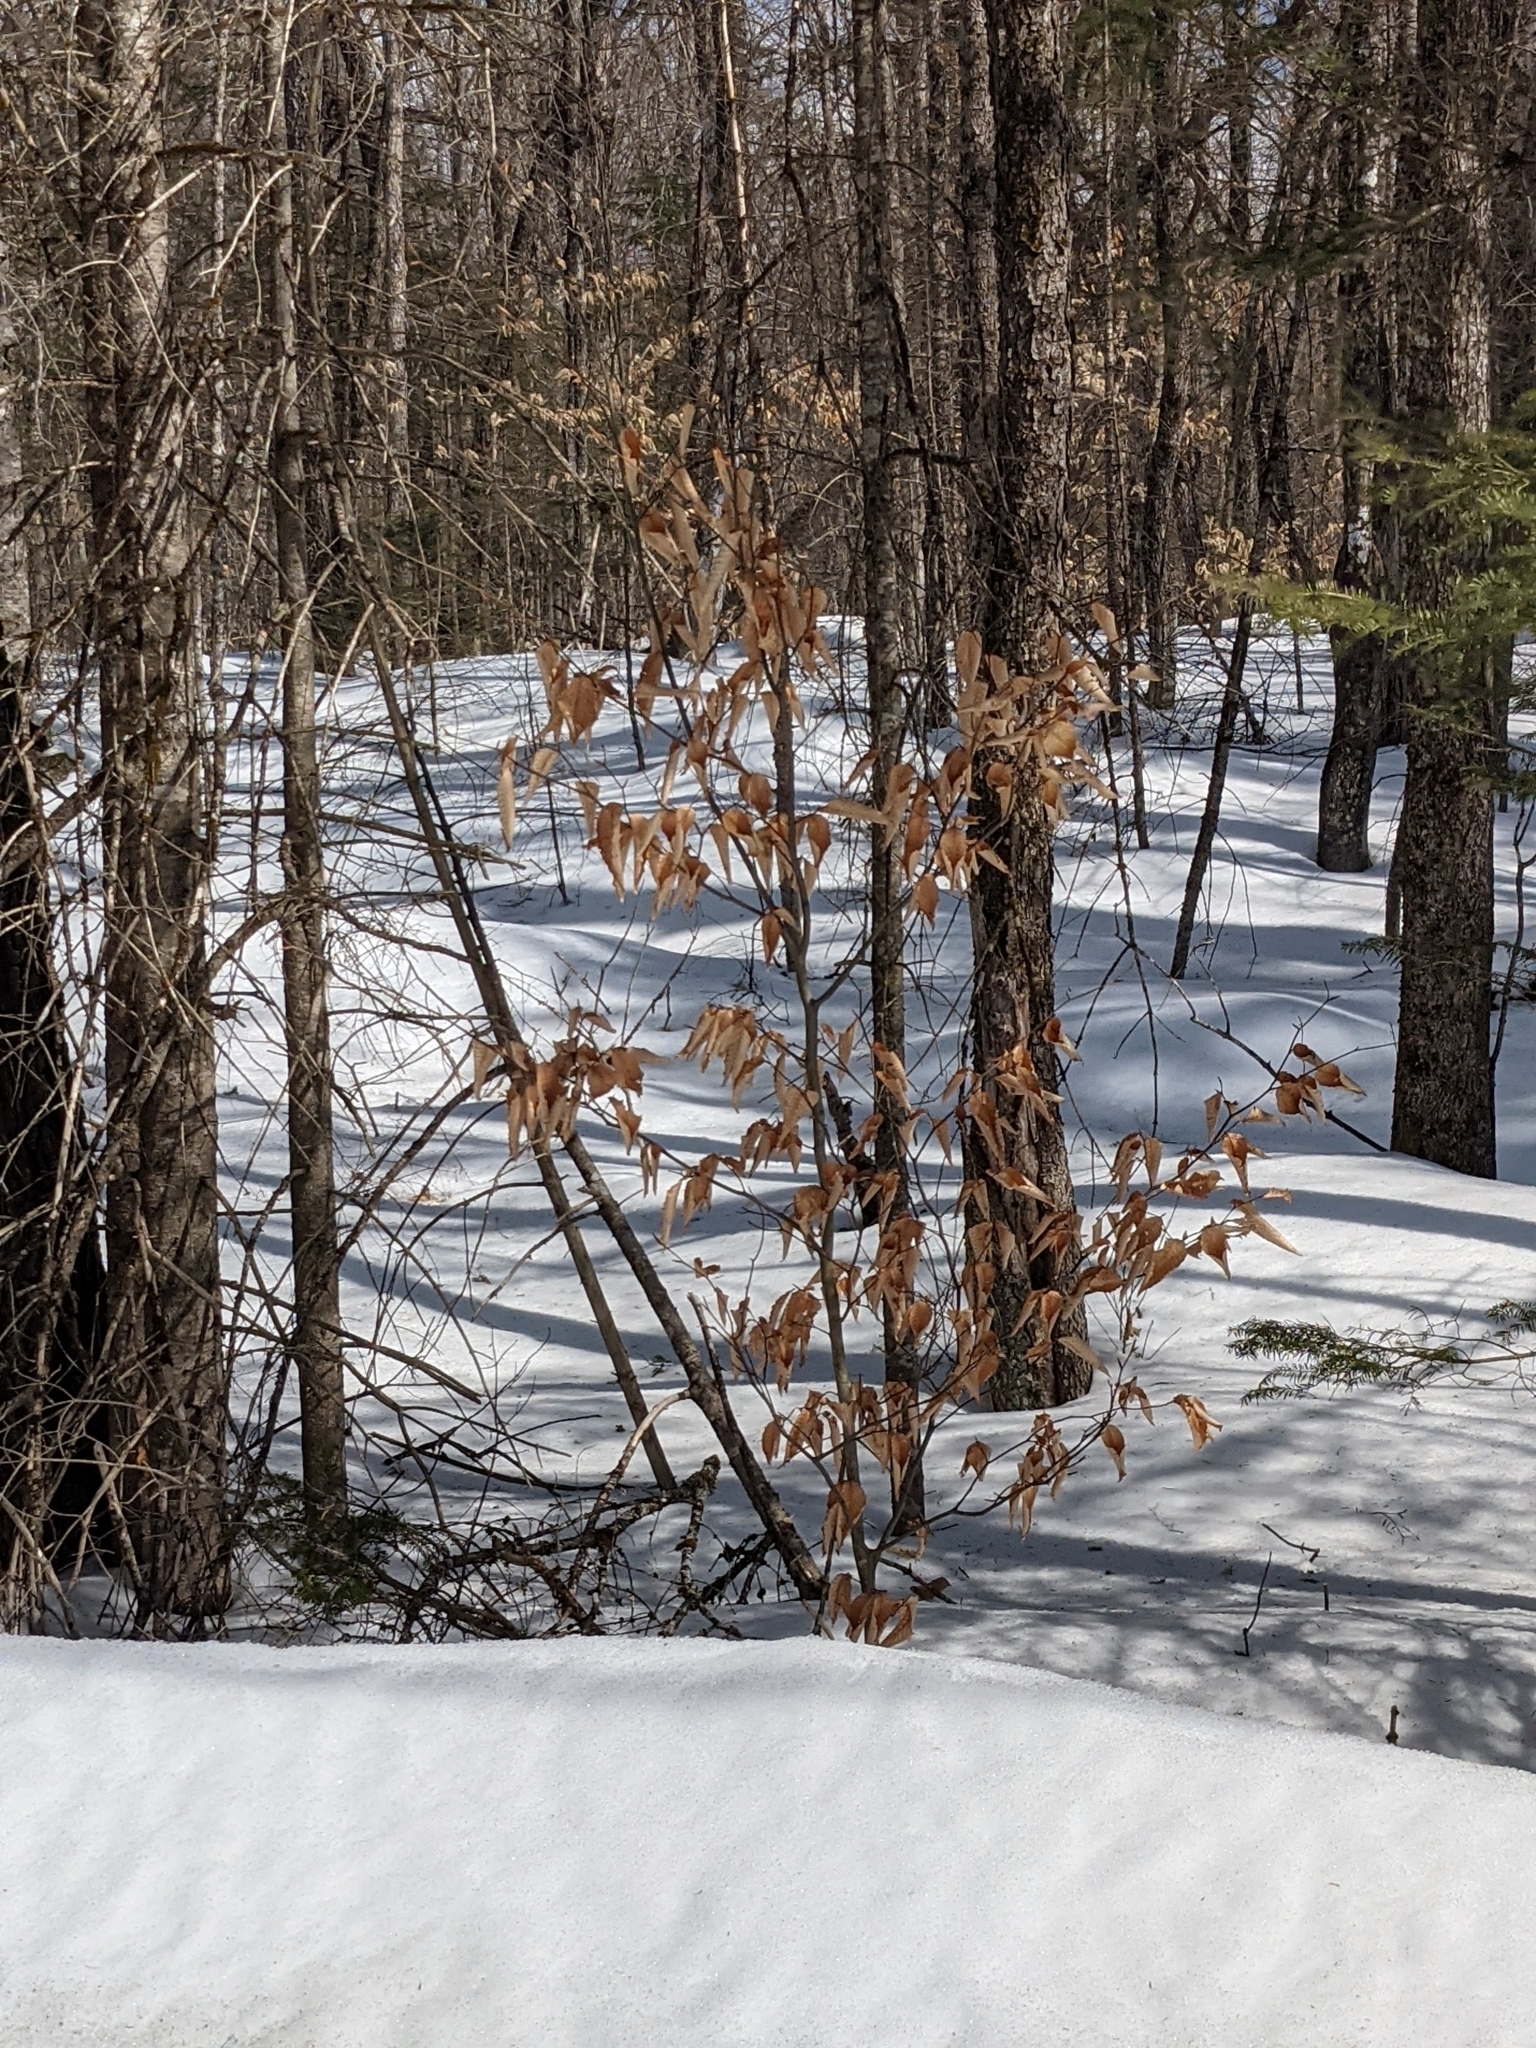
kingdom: Plantae
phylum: Tracheophyta
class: Magnoliopsida
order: Fagales
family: Fagaceae
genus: Fagus
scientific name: Fagus grandifolia
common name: American beech
